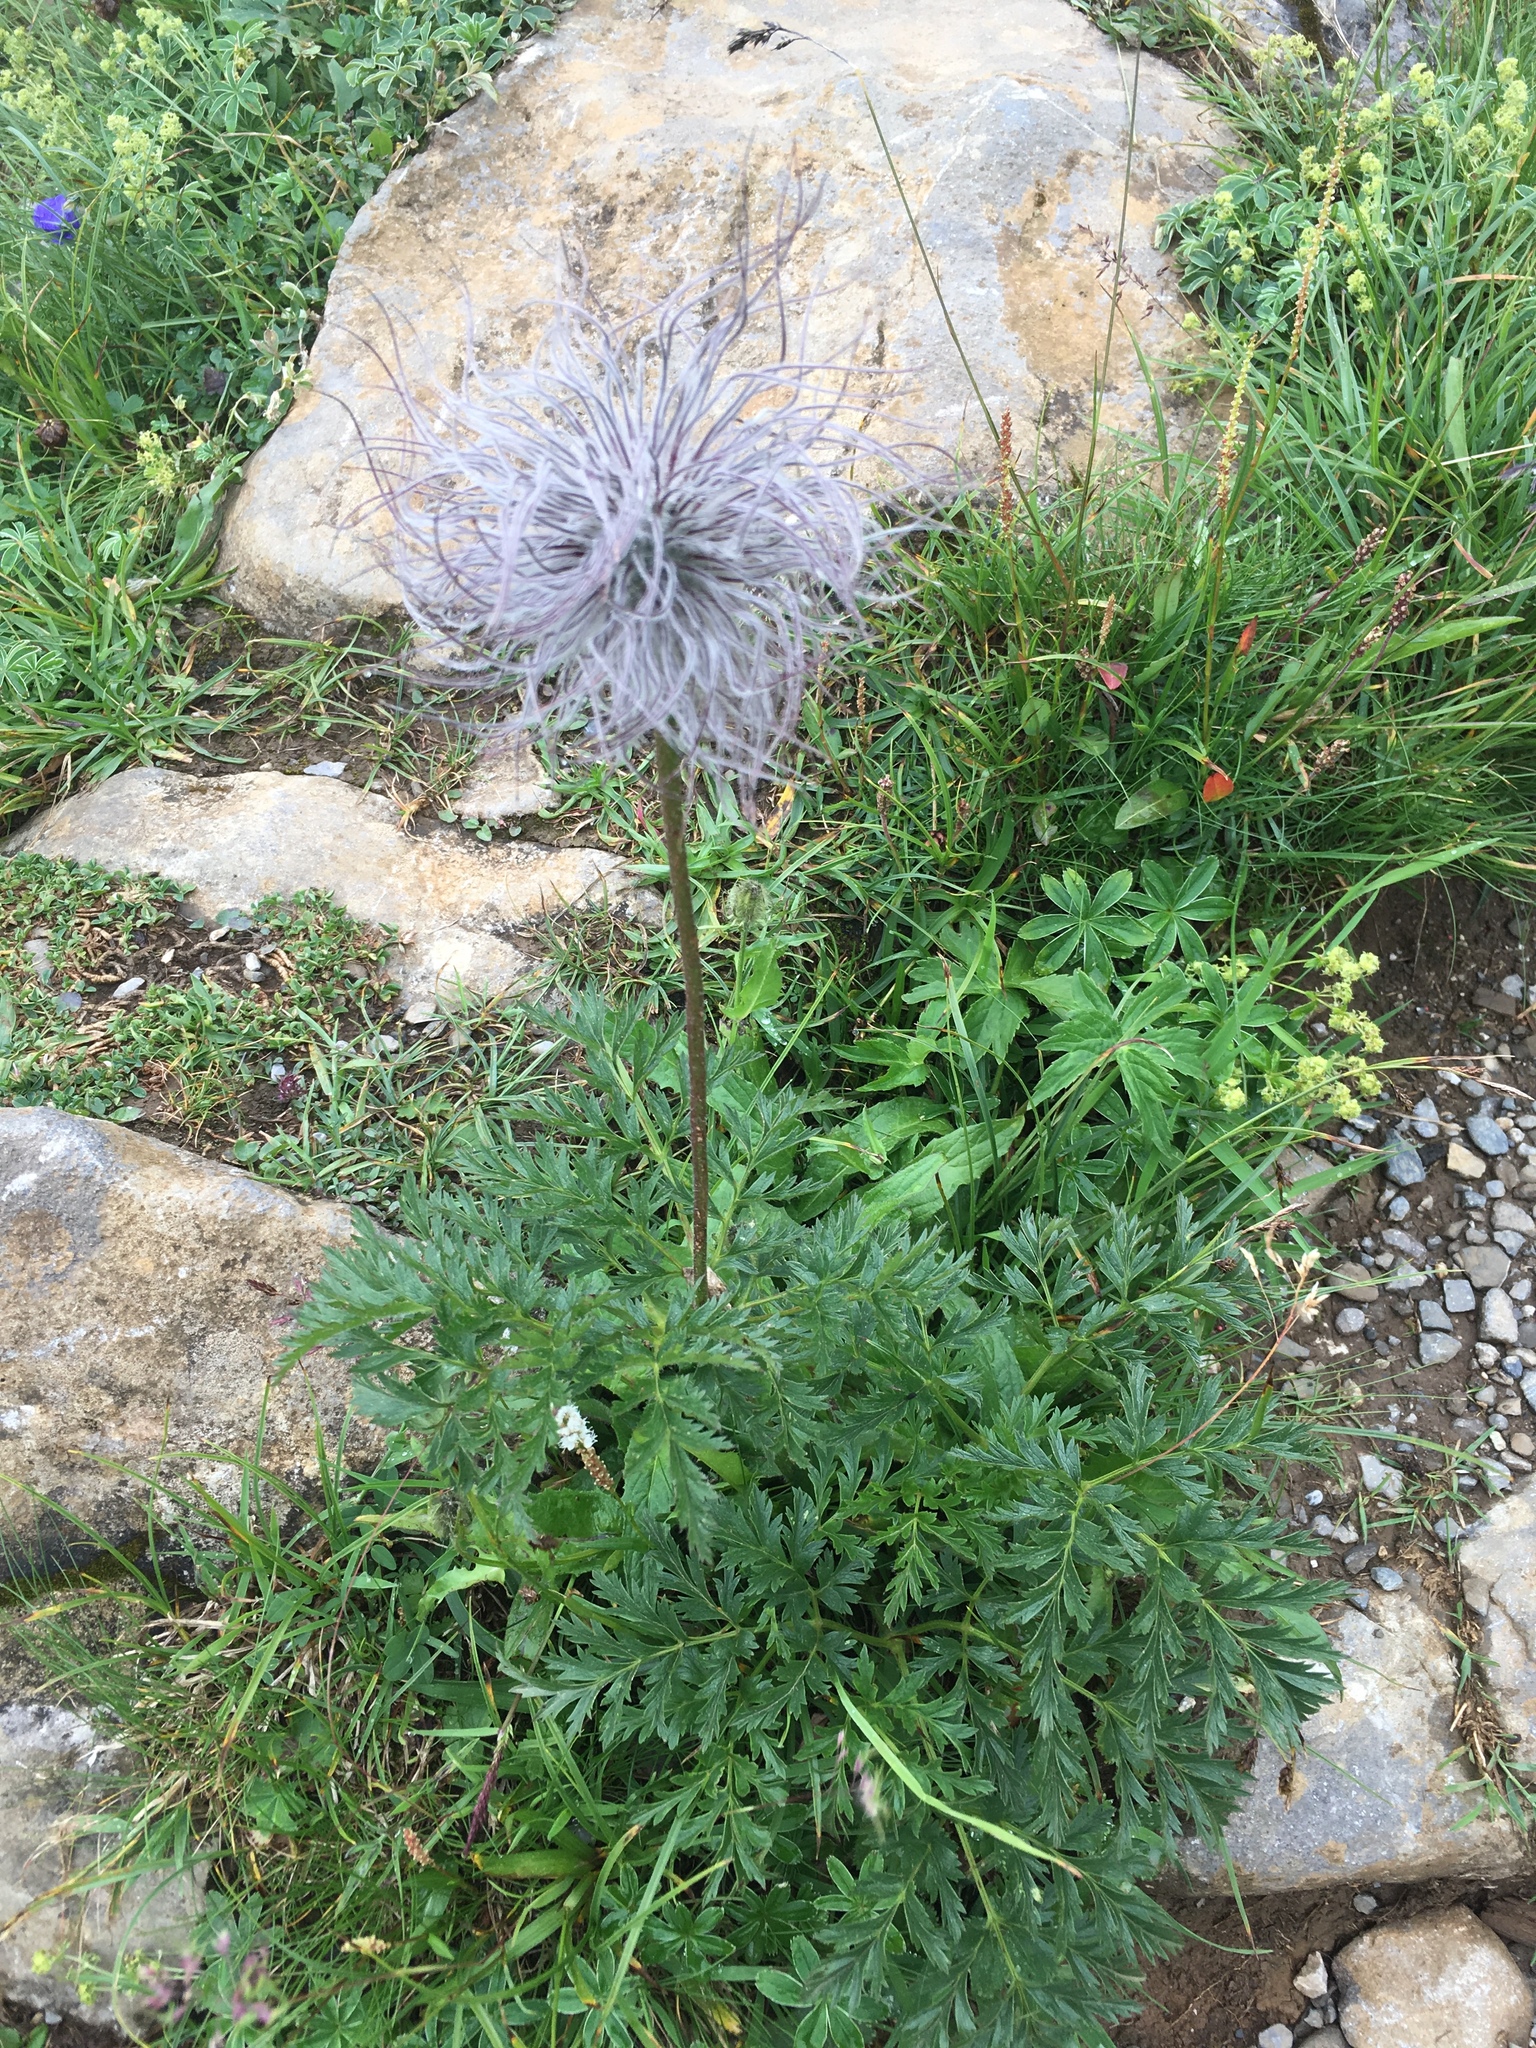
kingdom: Plantae
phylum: Tracheophyta
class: Magnoliopsida
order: Ranunculales
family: Ranunculaceae
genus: Pulsatilla
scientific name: Pulsatilla alpina
